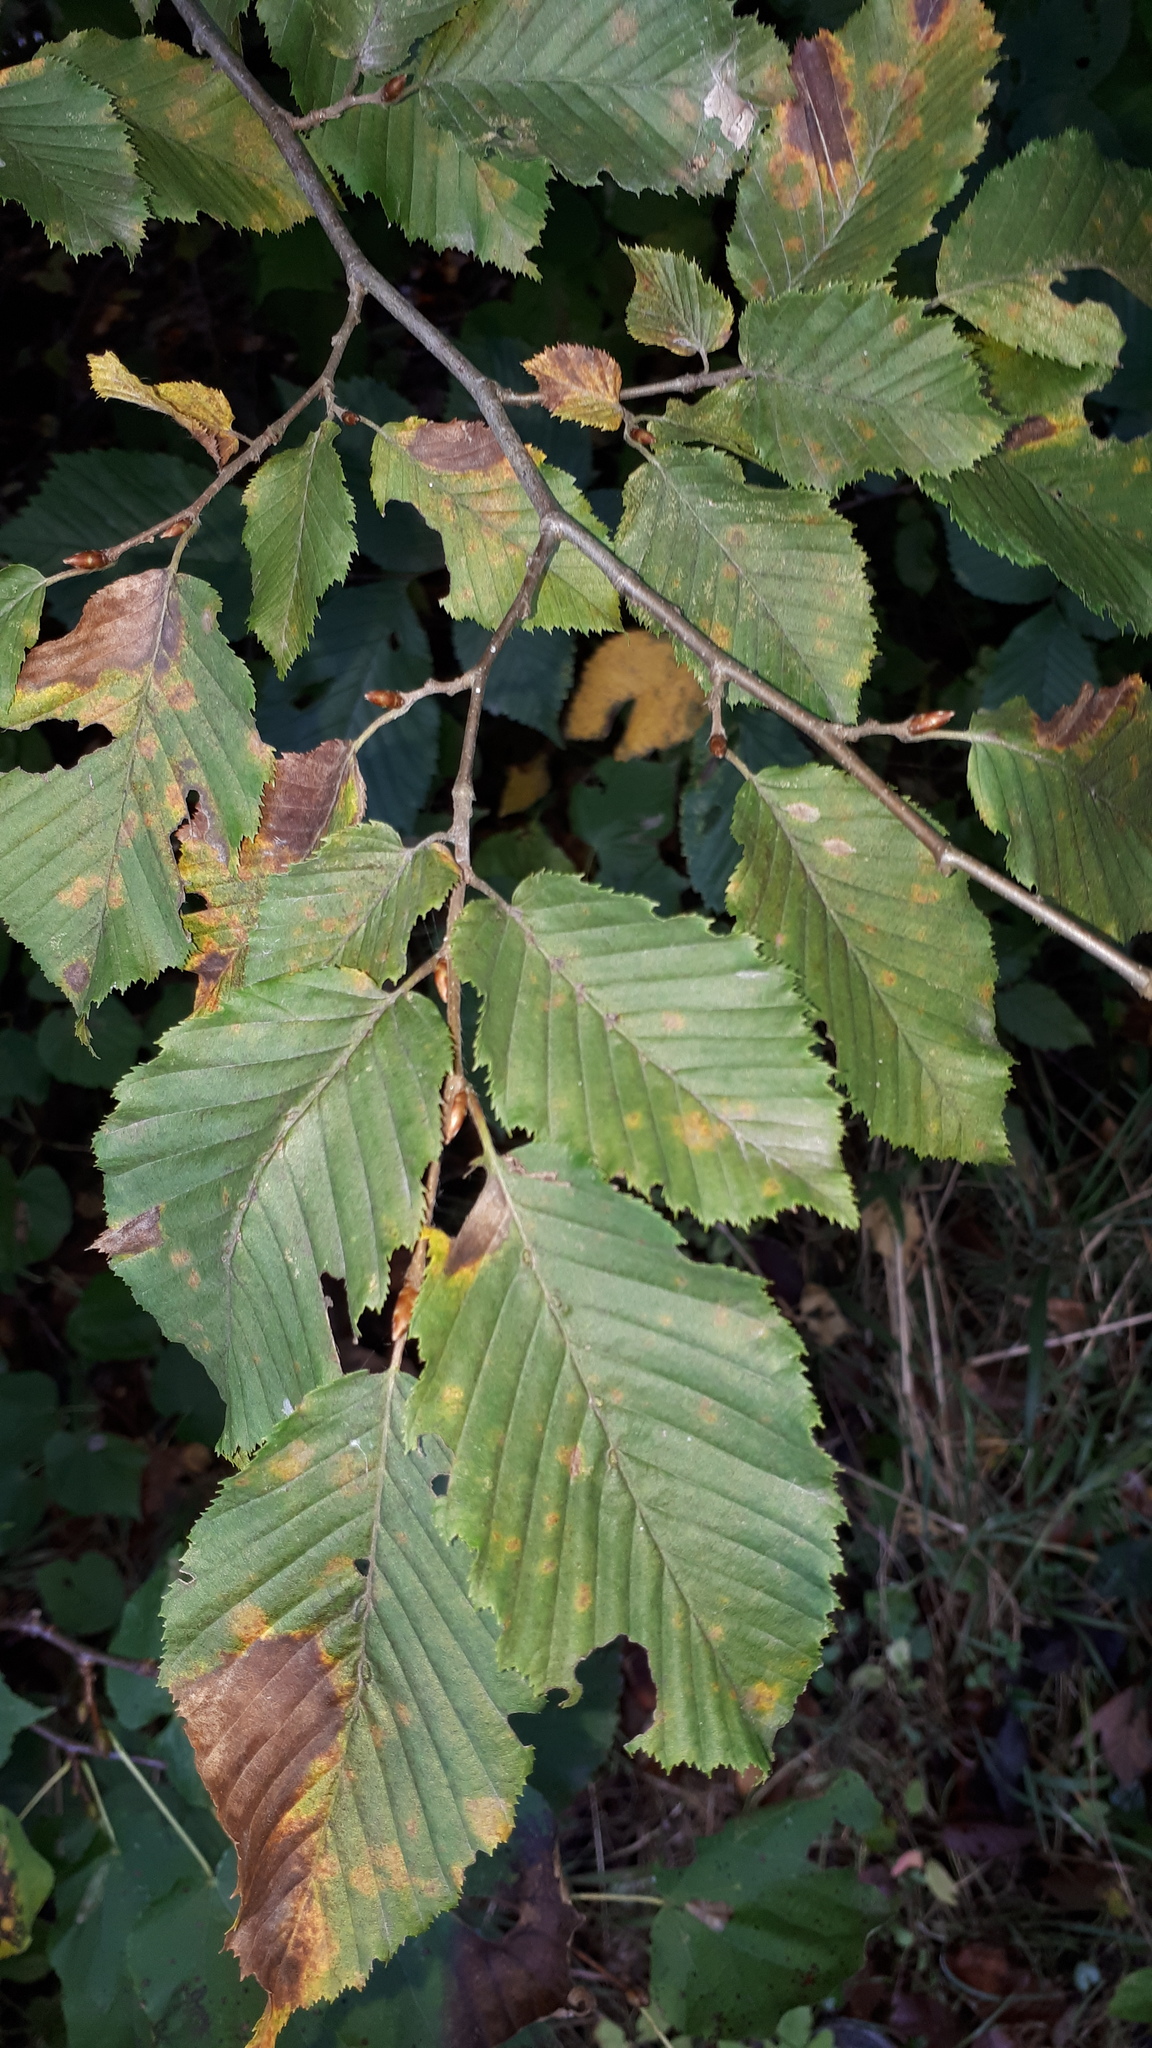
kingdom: Plantae
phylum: Tracheophyta
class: Magnoliopsida
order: Fagales
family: Betulaceae
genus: Carpinus
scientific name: Carpinus betulus
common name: Hornbeam
